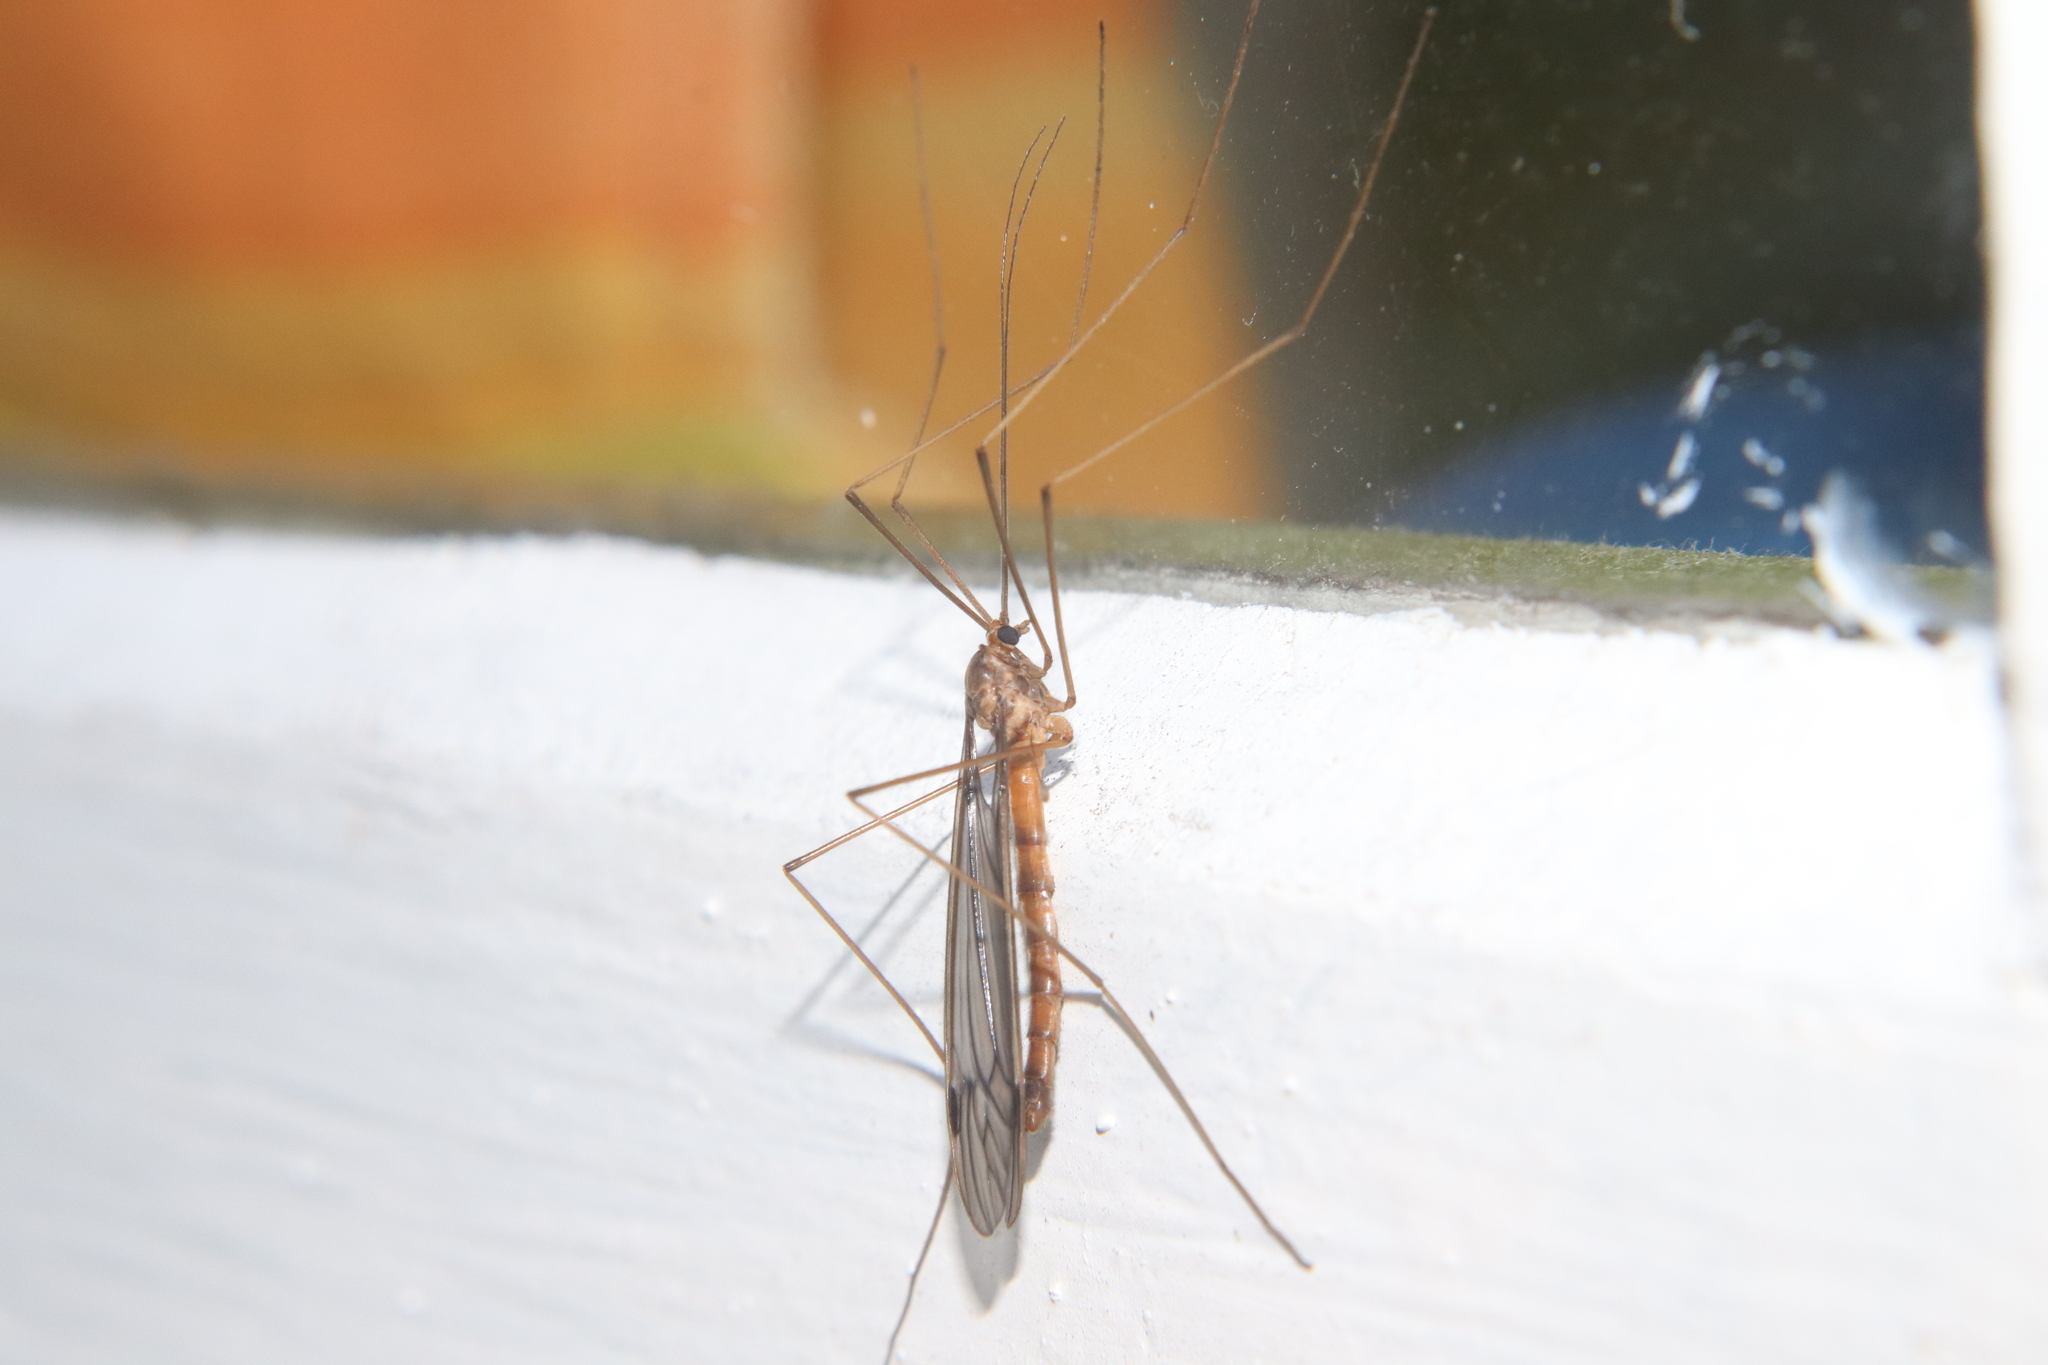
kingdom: Animalia
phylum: Arthropoda
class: Insecta
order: Diptera
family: Tipulidae
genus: Leptotarsus
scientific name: Leptotarsus pallidus
